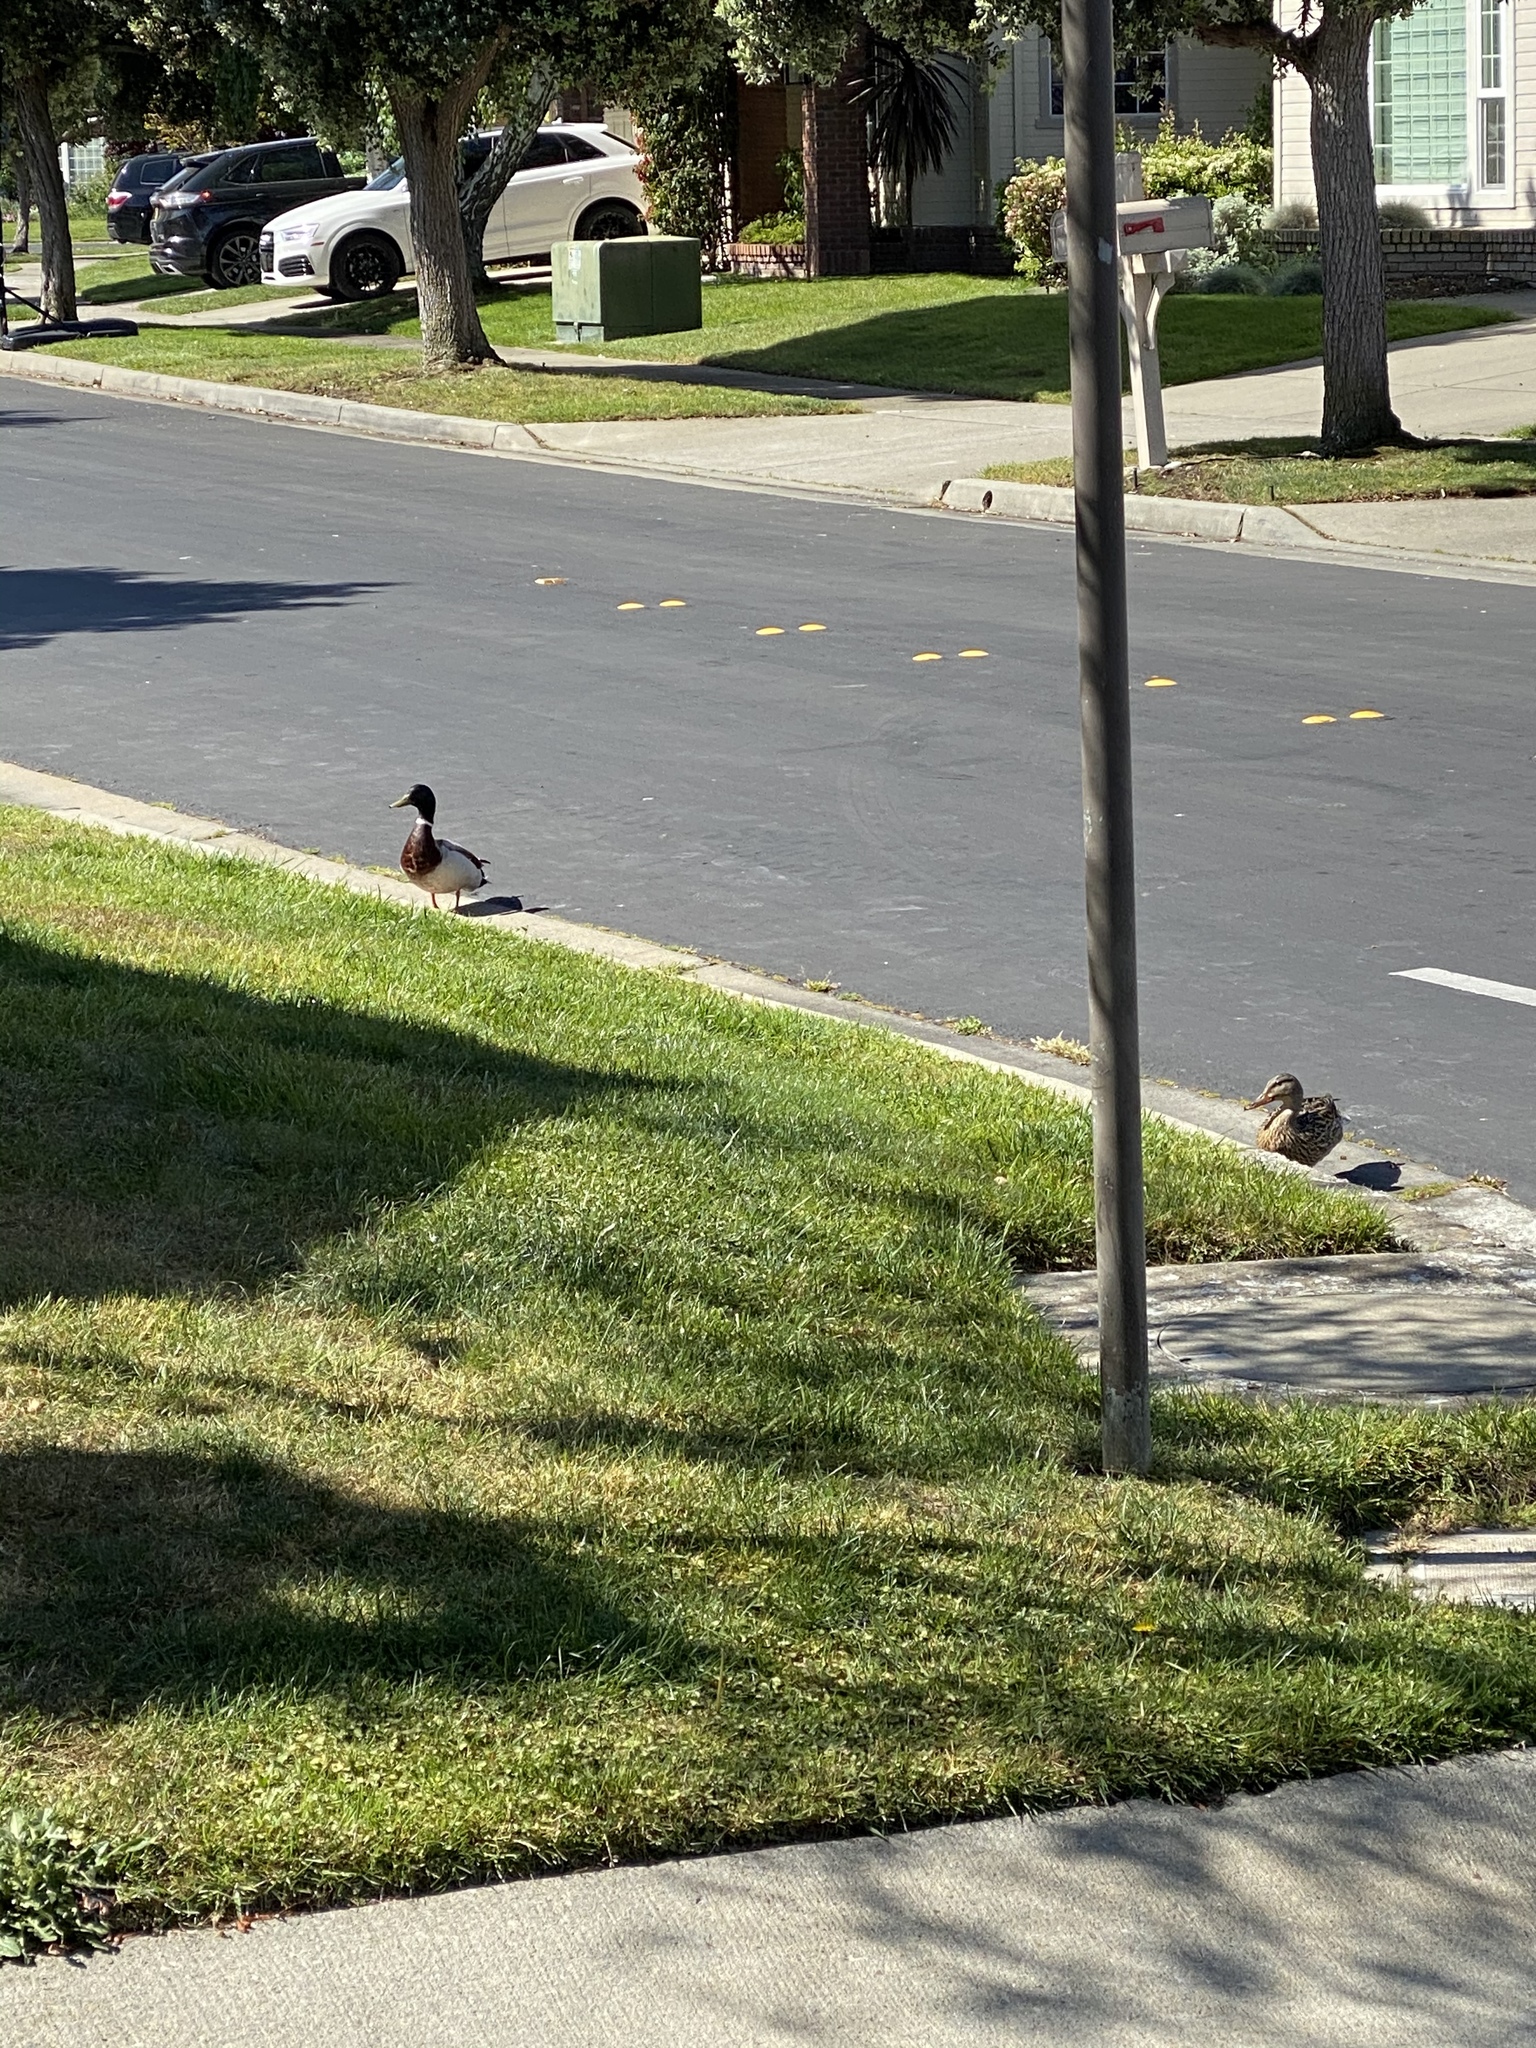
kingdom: Animalia
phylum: Chordata
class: Aves
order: Anseriformes
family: Anatidae
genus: Anas
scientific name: Anas platyrhynchos
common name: Mallard
